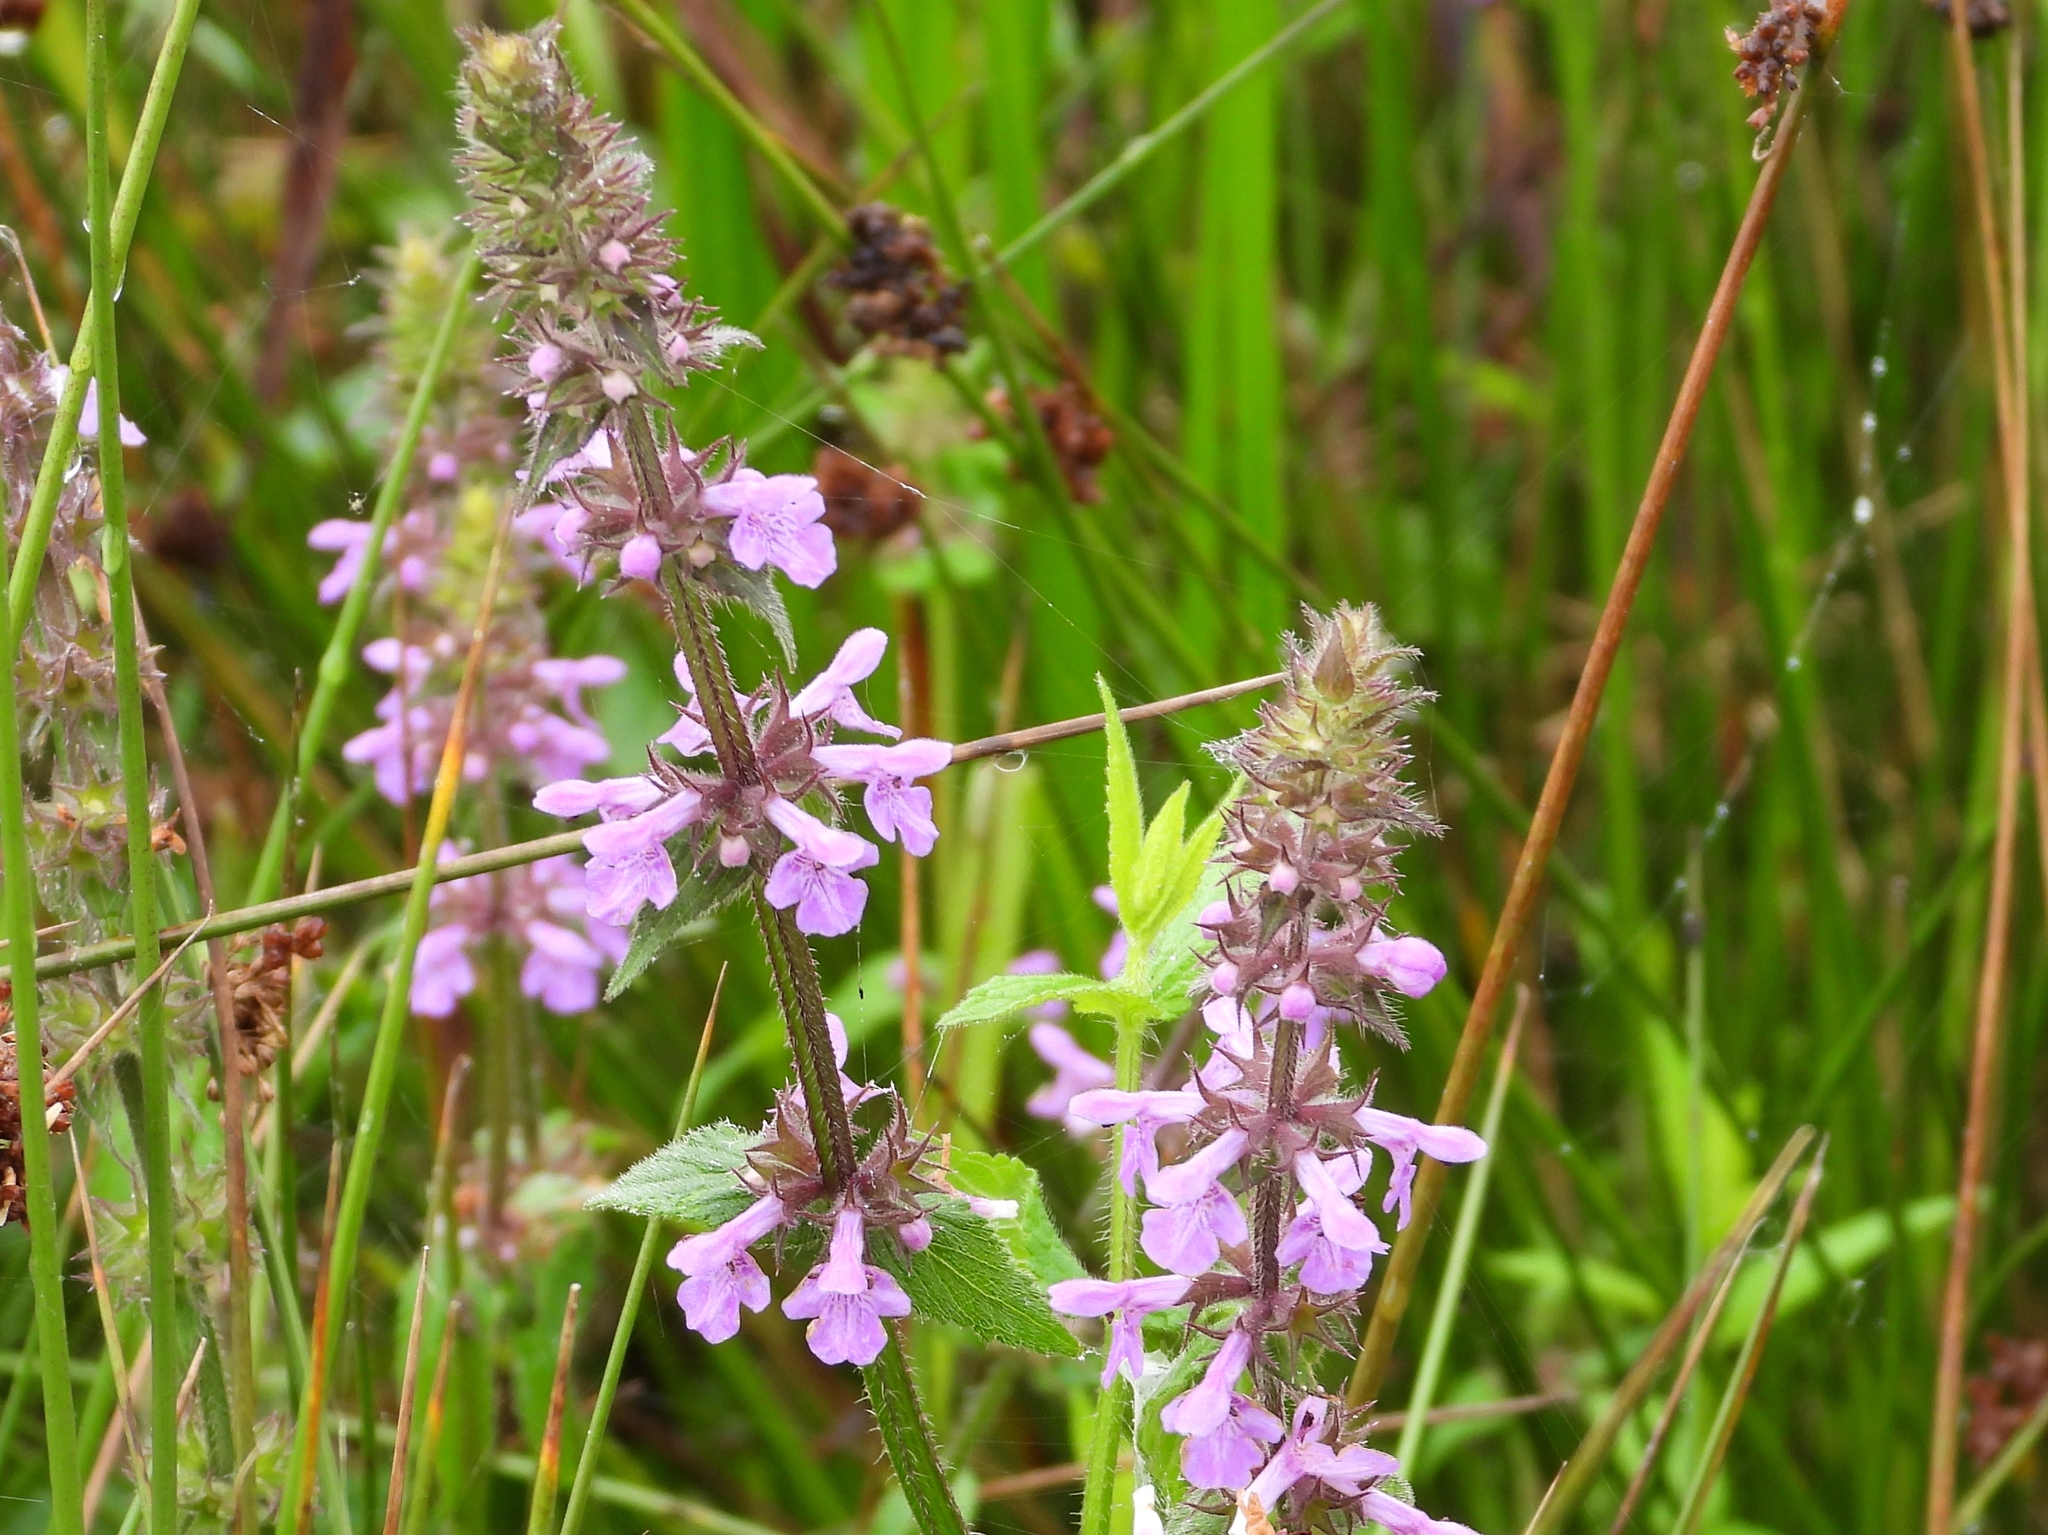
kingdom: Plantae
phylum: Tracheophyta
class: Magnoliopsida
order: Lamiales
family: Lamiaceae
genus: Stachys
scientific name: Stachys palustris
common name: Marsh woundwort
